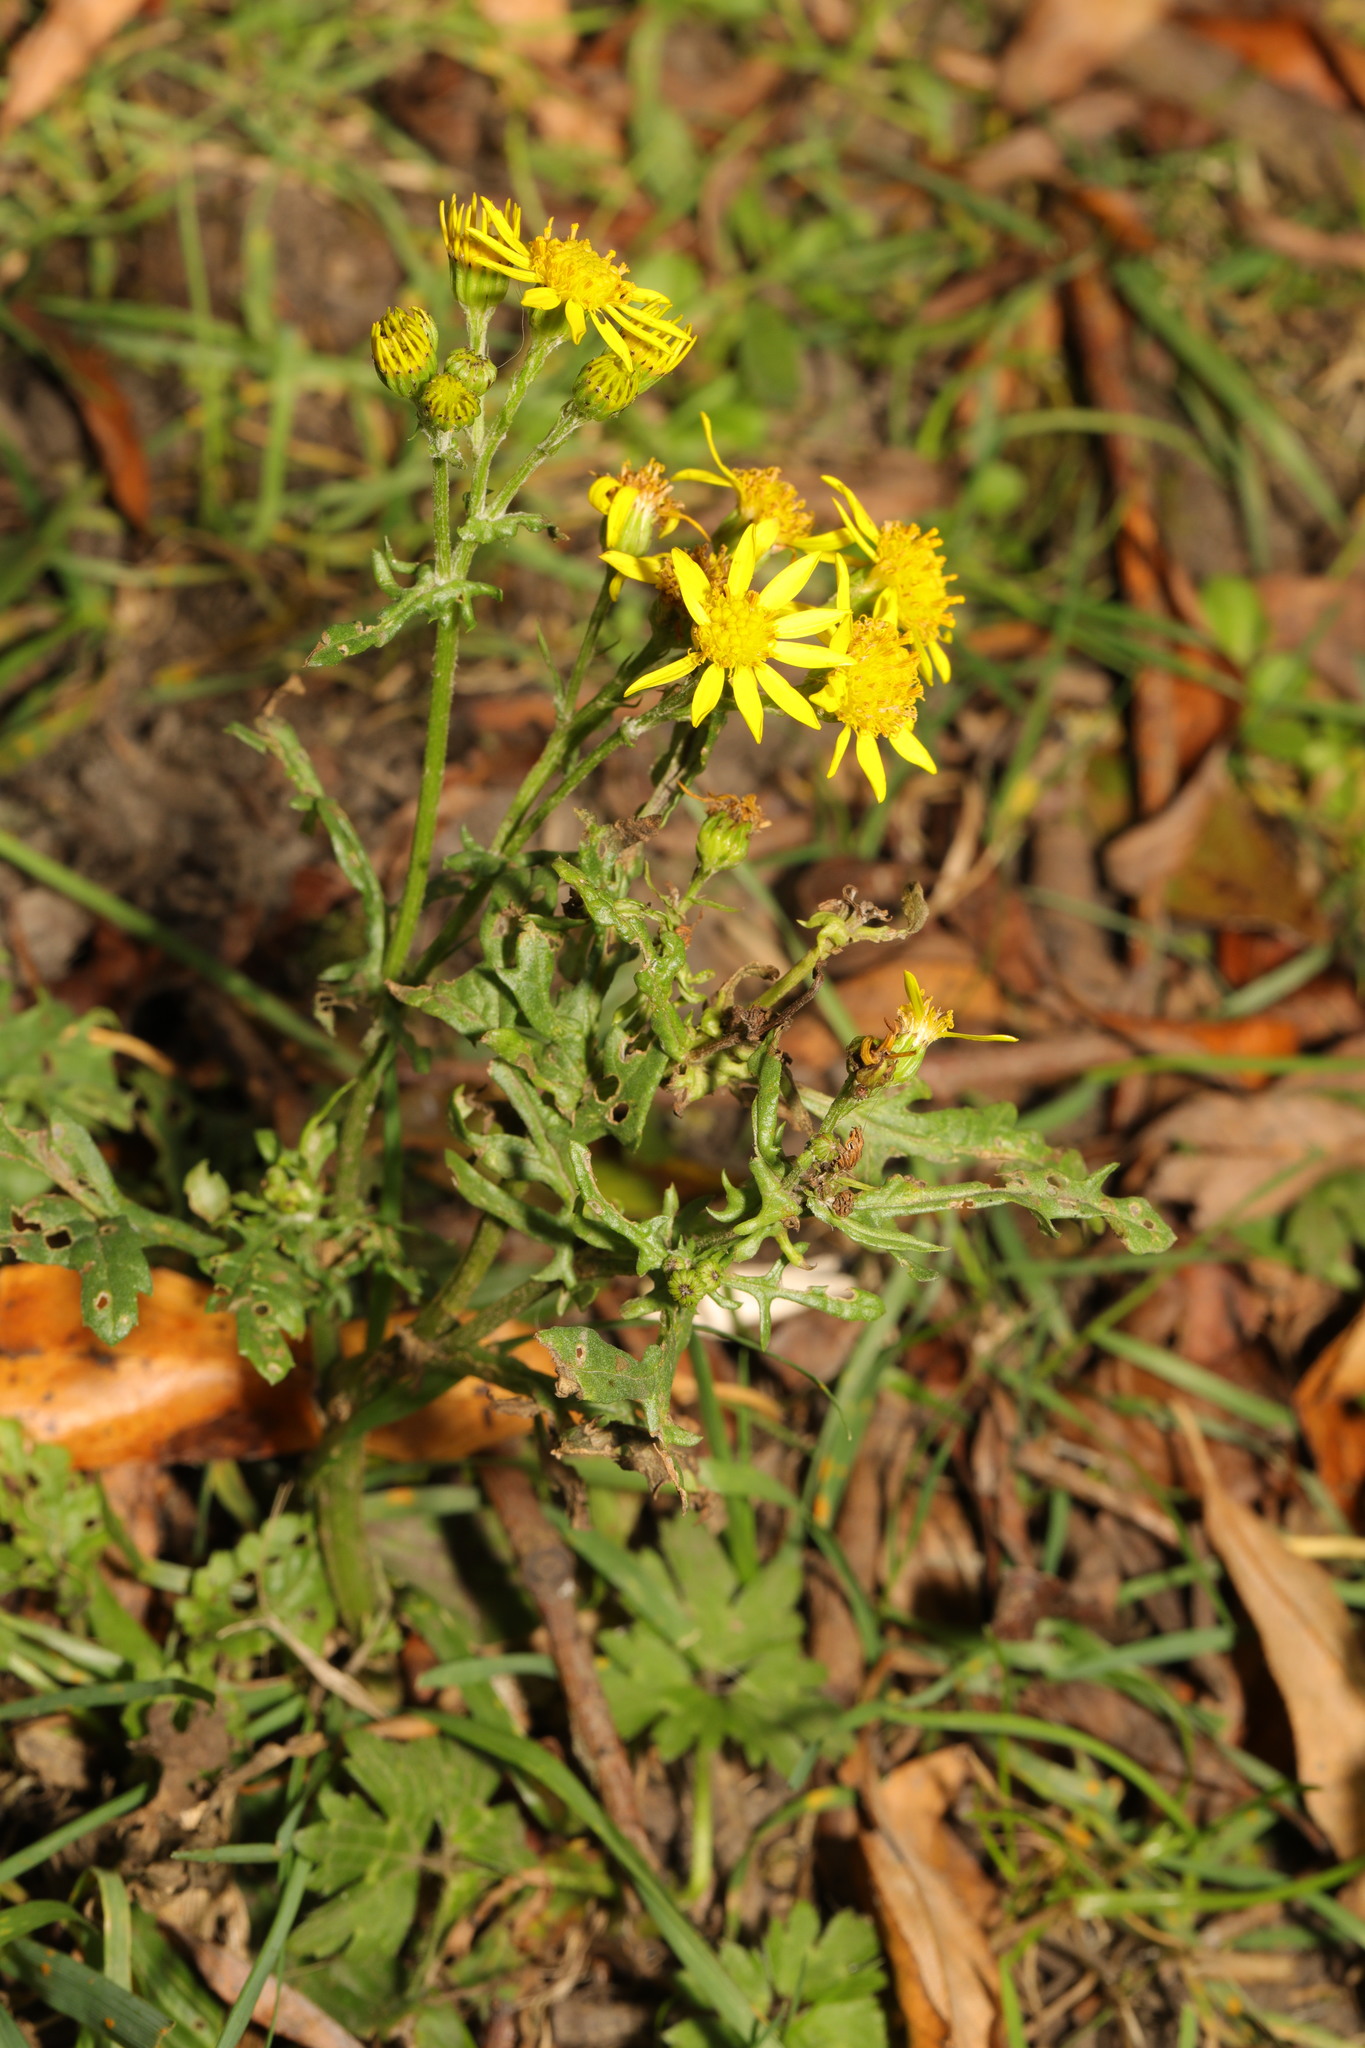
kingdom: Plantae
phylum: Tracheophyta
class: Magnoliopsida
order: Asterales
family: Asteraceae
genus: Jacobaea
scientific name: Jacobaea vulgaris
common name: Stinking willie
